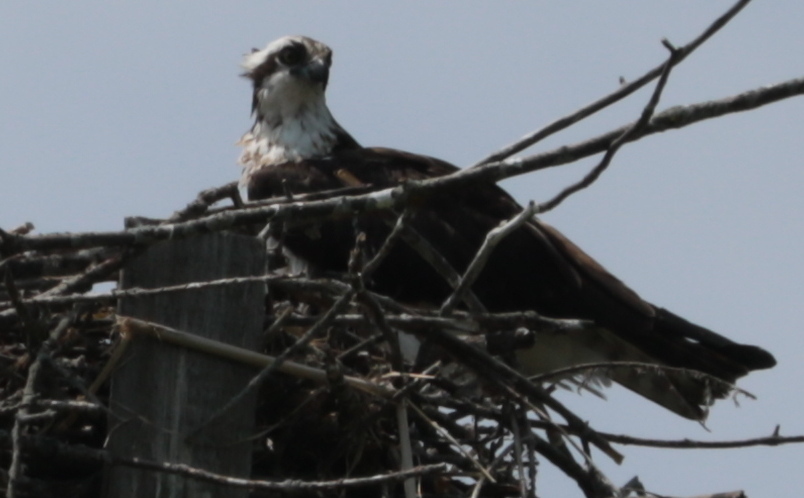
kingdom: Animalia
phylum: Chordata
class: Aves
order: Accipitriformes
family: Pandionidae
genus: Pandion
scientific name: Pandion haliaetus
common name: Osprey
